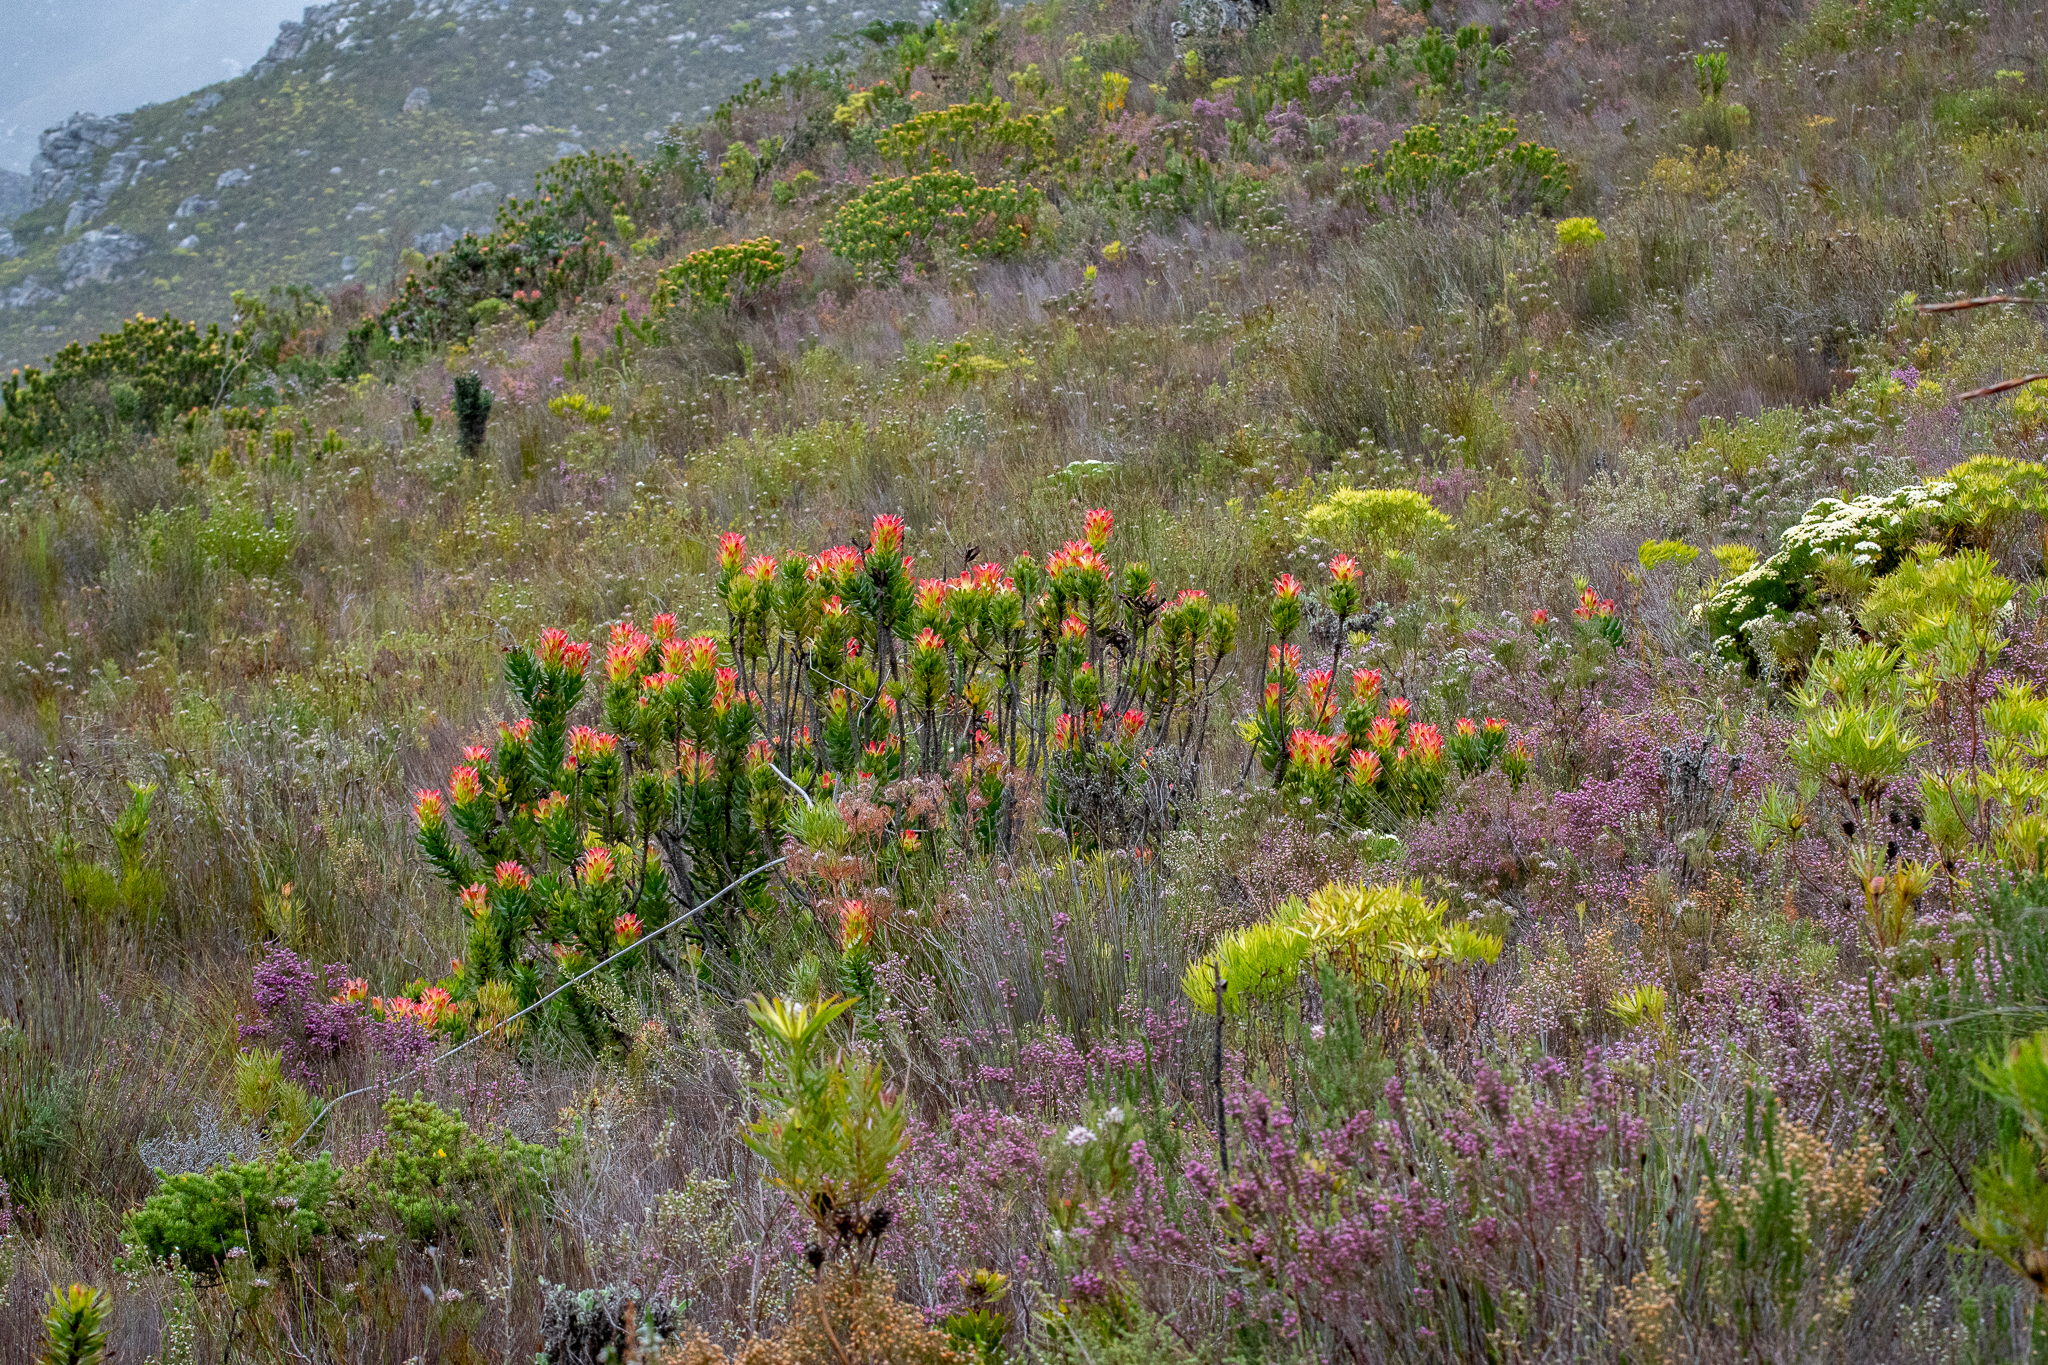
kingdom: Plantae
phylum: Tracheophyta
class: Magnoliopsida
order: Proteales
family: Proteaceae
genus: Mimetes
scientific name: Mimetes cucullatus
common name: Common pagoda
